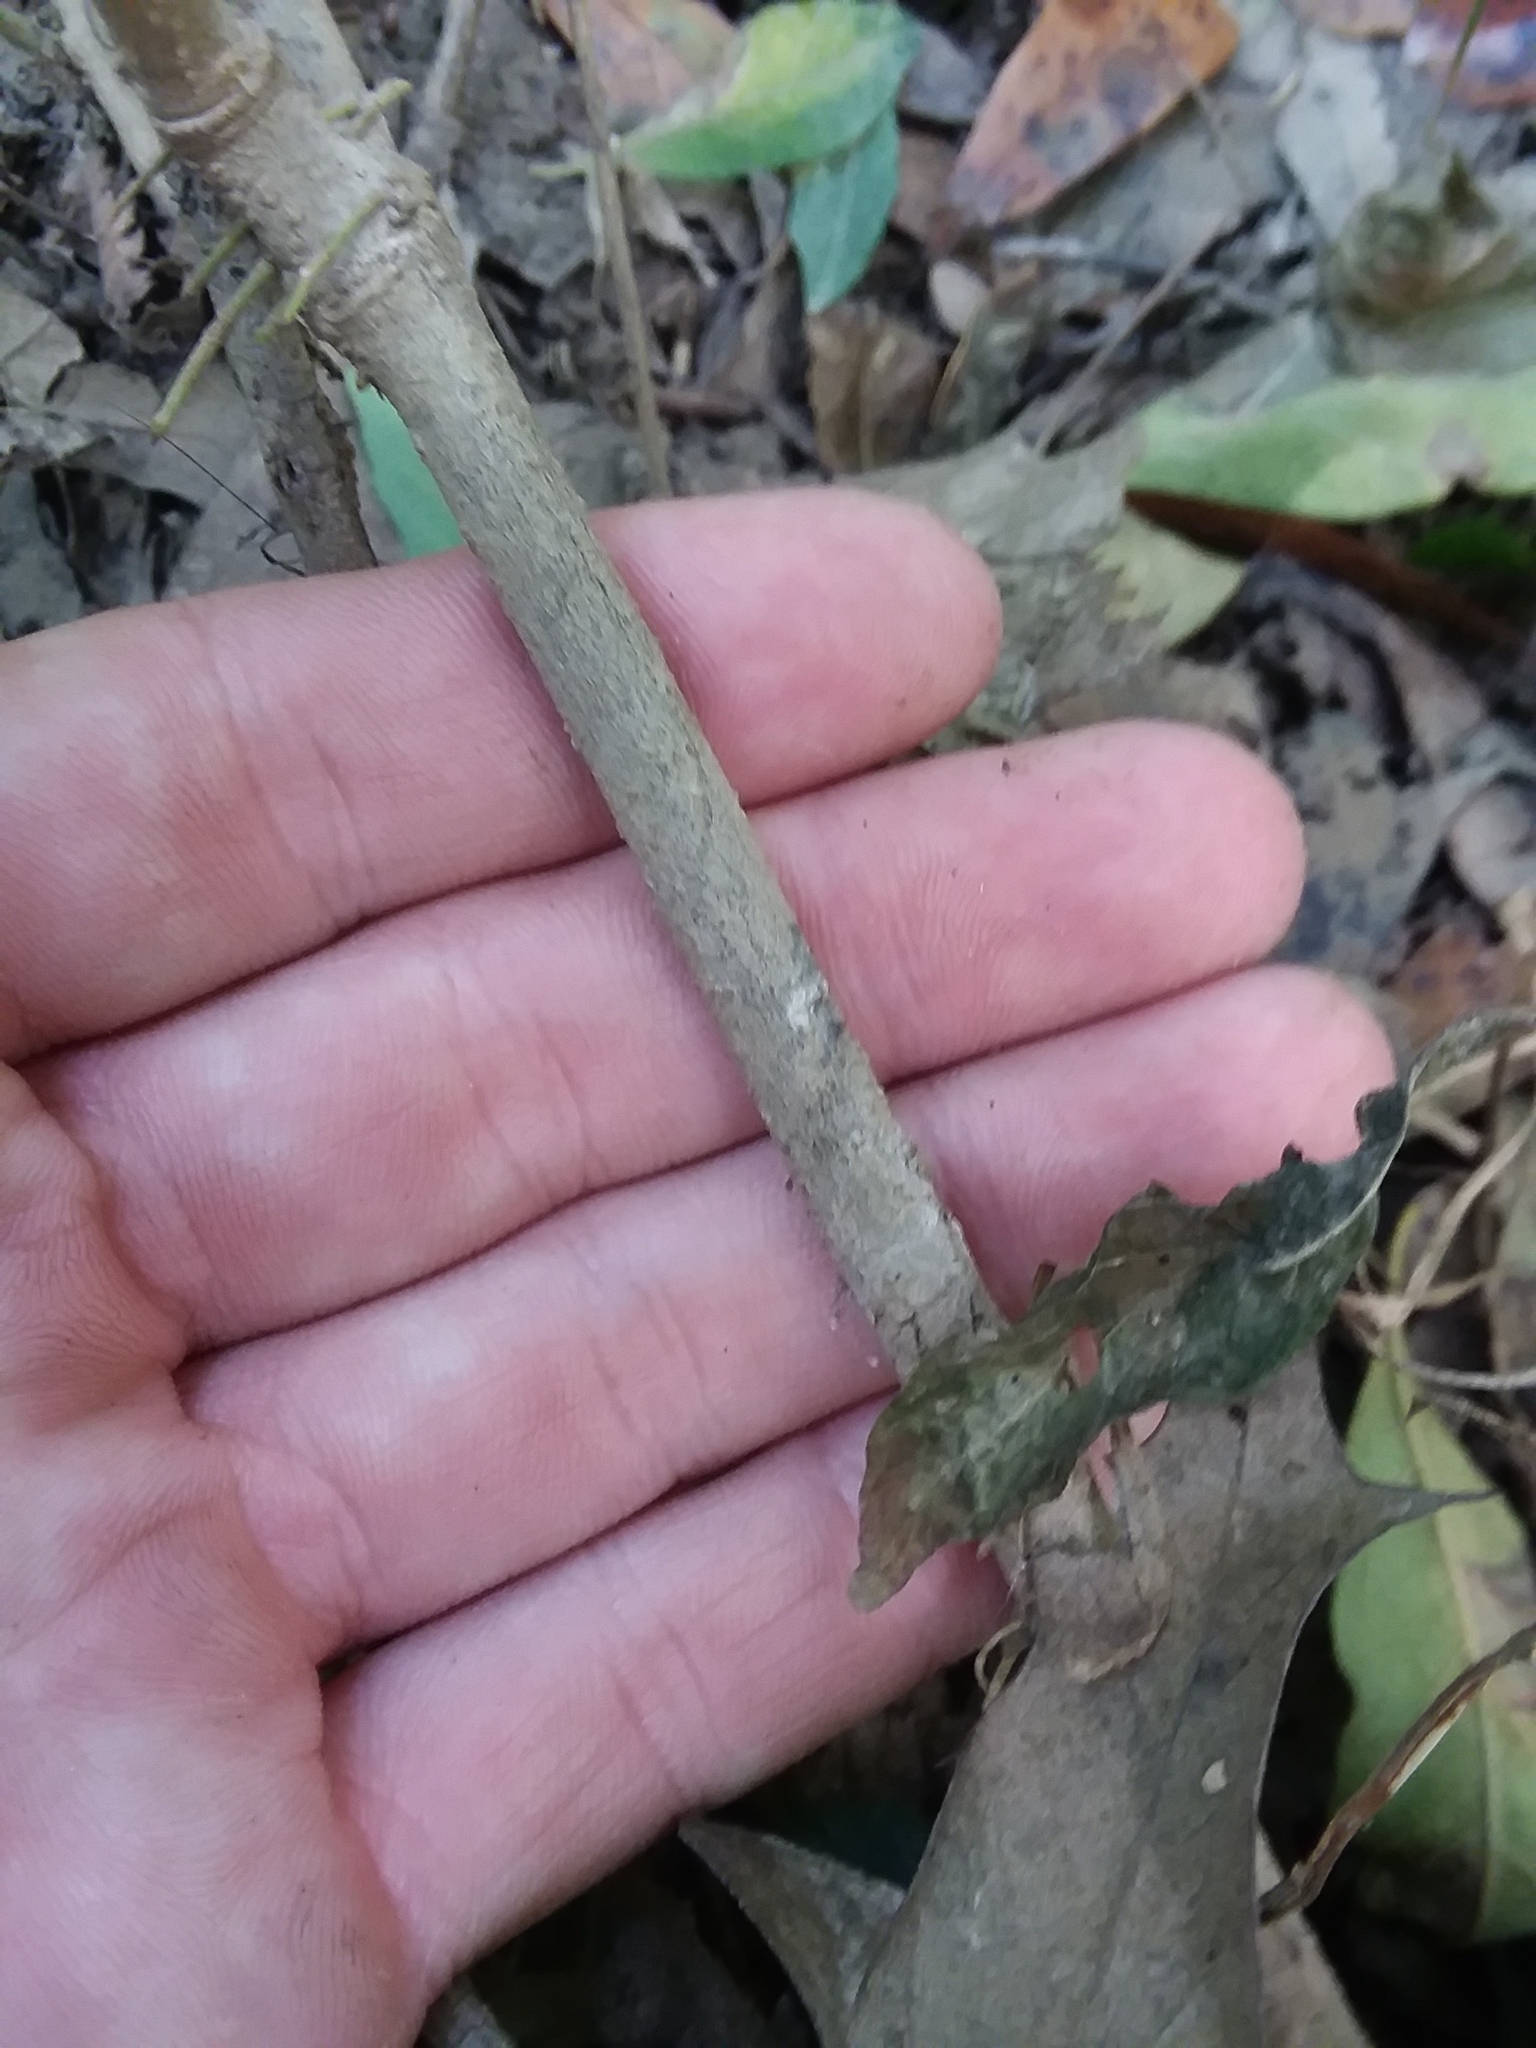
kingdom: Plantae
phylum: Tracheophyta
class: Magnoliopsida
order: Solanales
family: Solanaceae
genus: Solanum
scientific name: Solanum pseudocapsicum
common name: Jerusalem cherry
